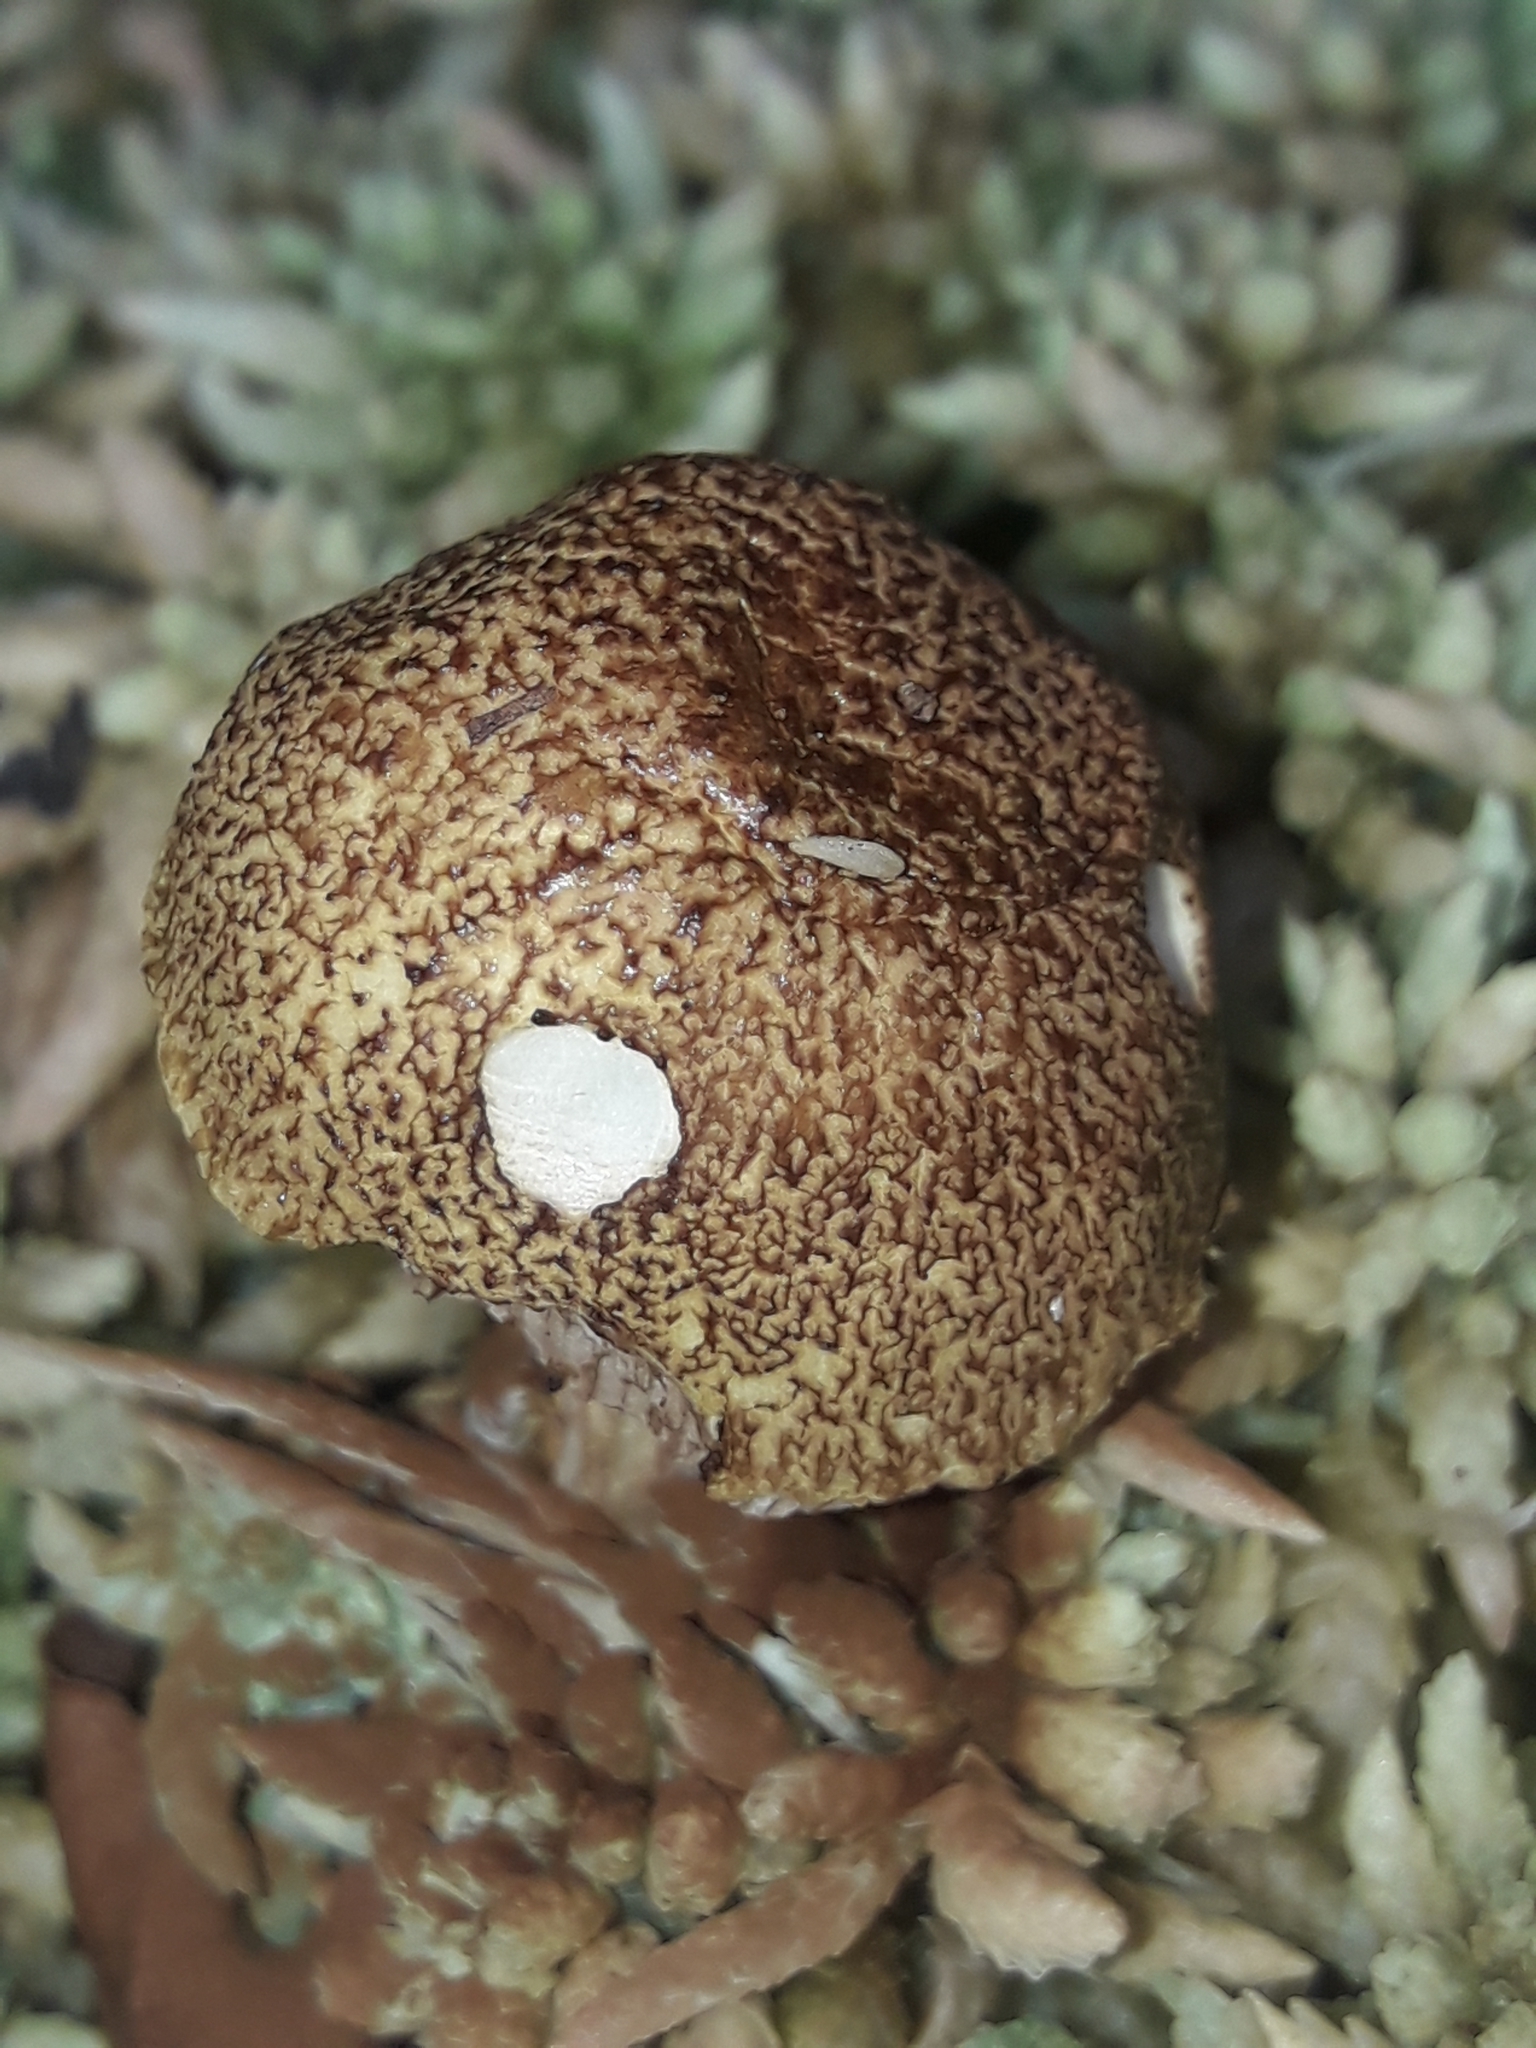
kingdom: Fungi
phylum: Basidiomycota
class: Agaricomycetes
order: Boletales
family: Boletaceae
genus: Austroboletus
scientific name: Austroboletus lacunosus
